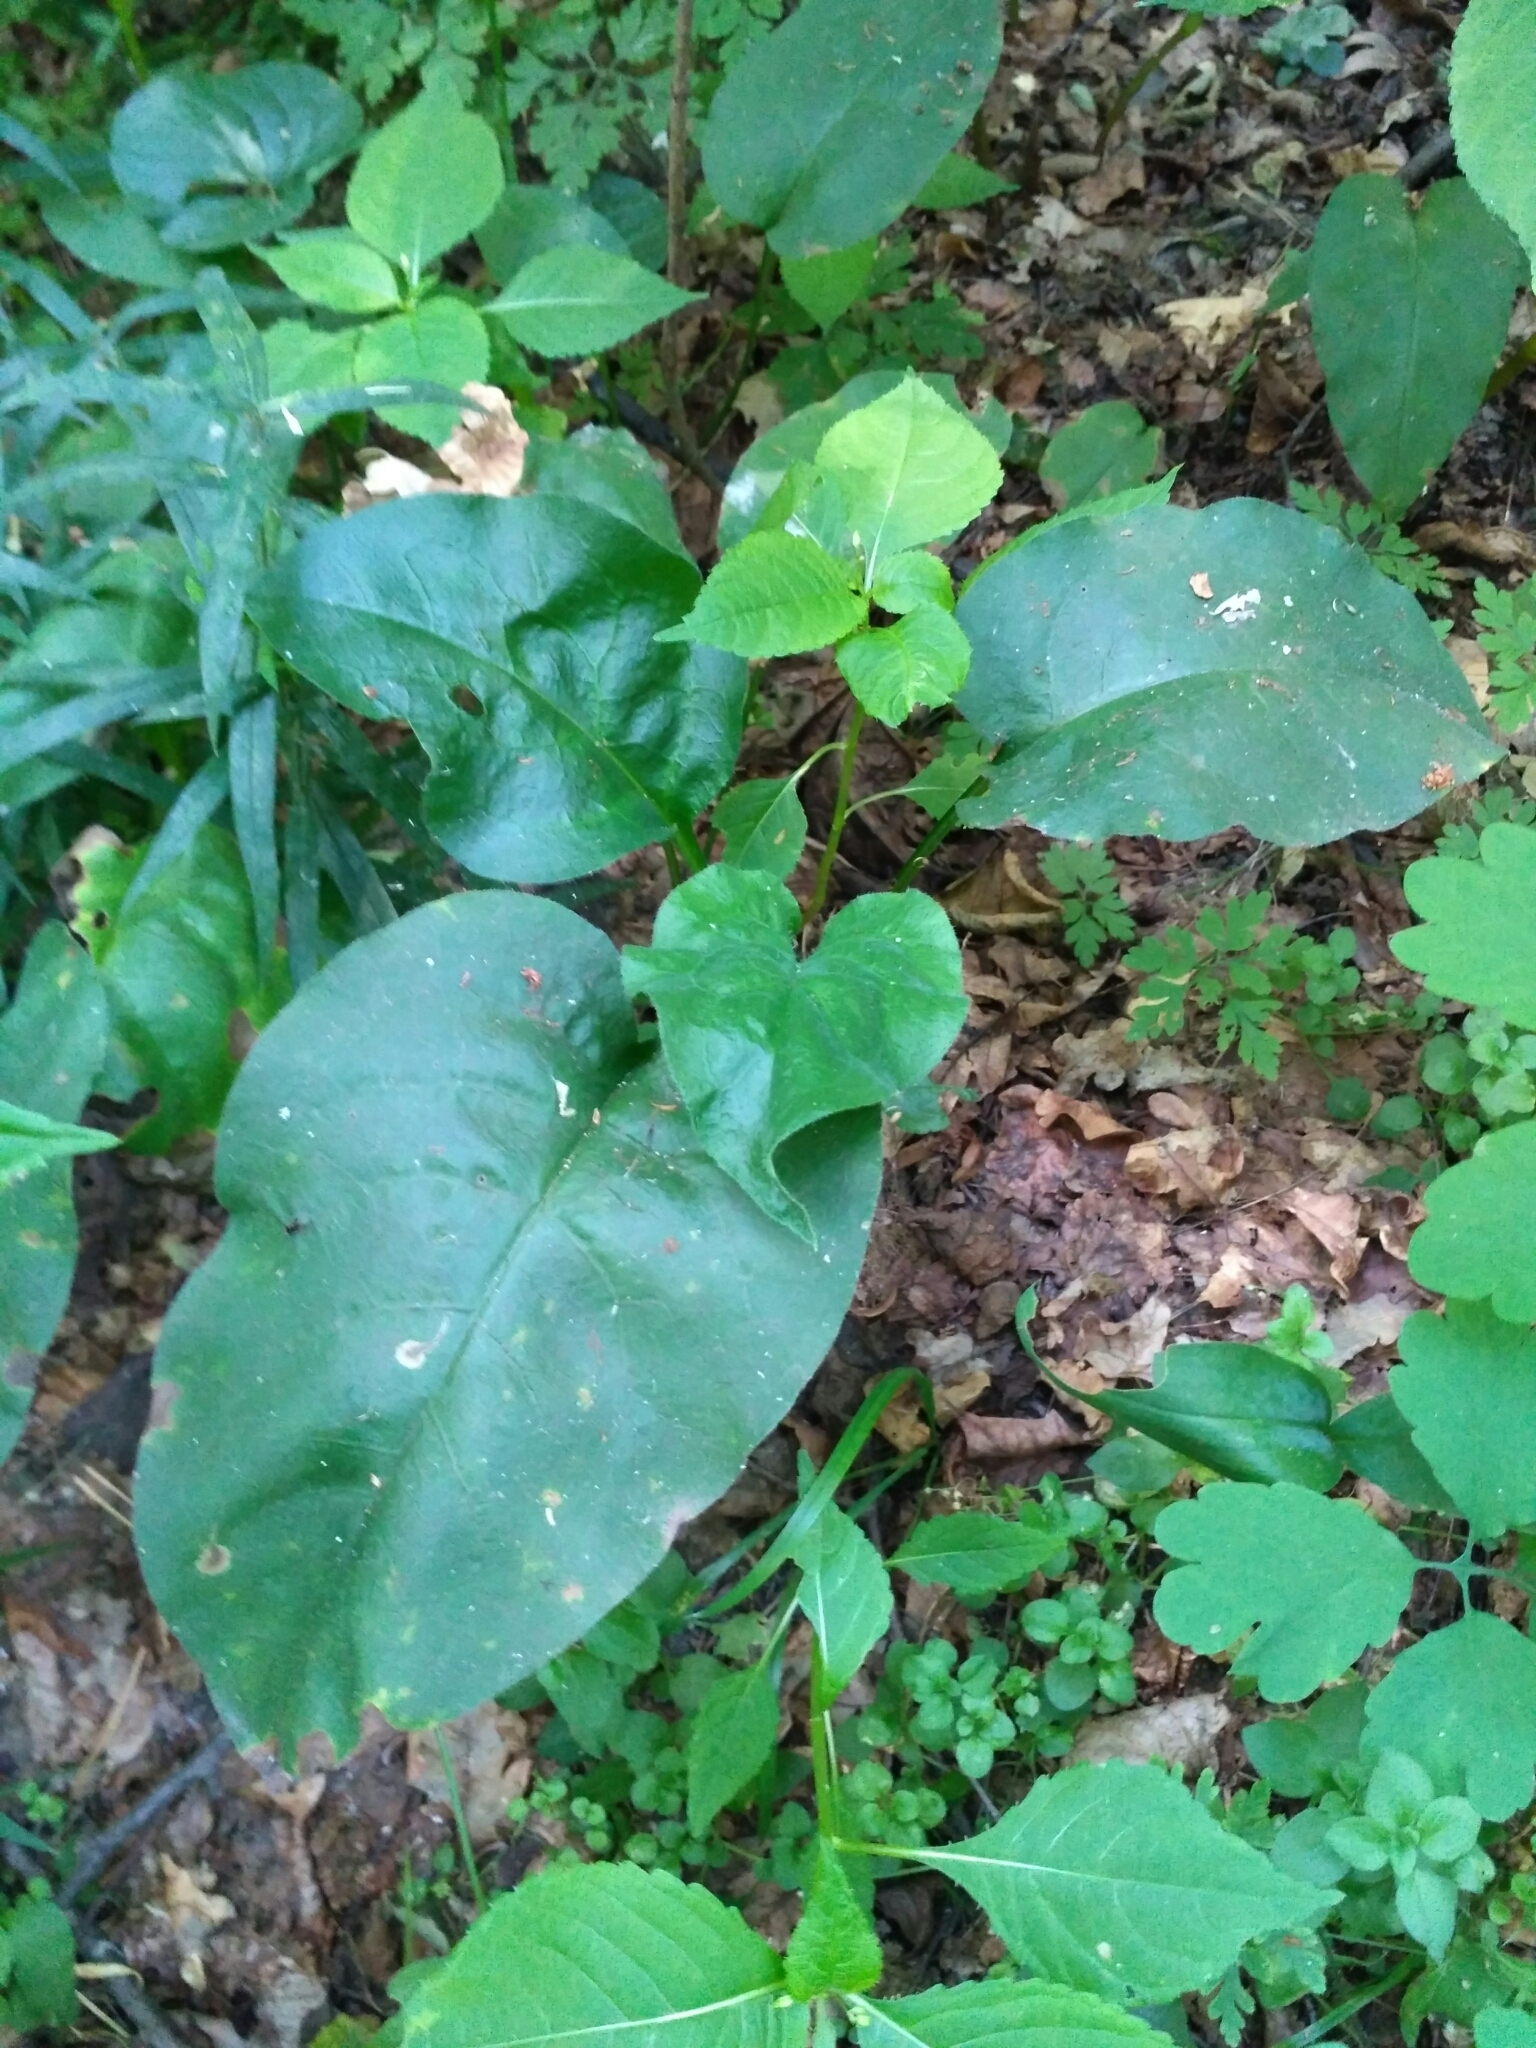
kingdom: Plantae
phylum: Tracheophyta
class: Magnoliopsida
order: Boraginales
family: Boraginaceae
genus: Pulmonaria
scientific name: Pulmonaria obscura
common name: Suffolk lungwort
